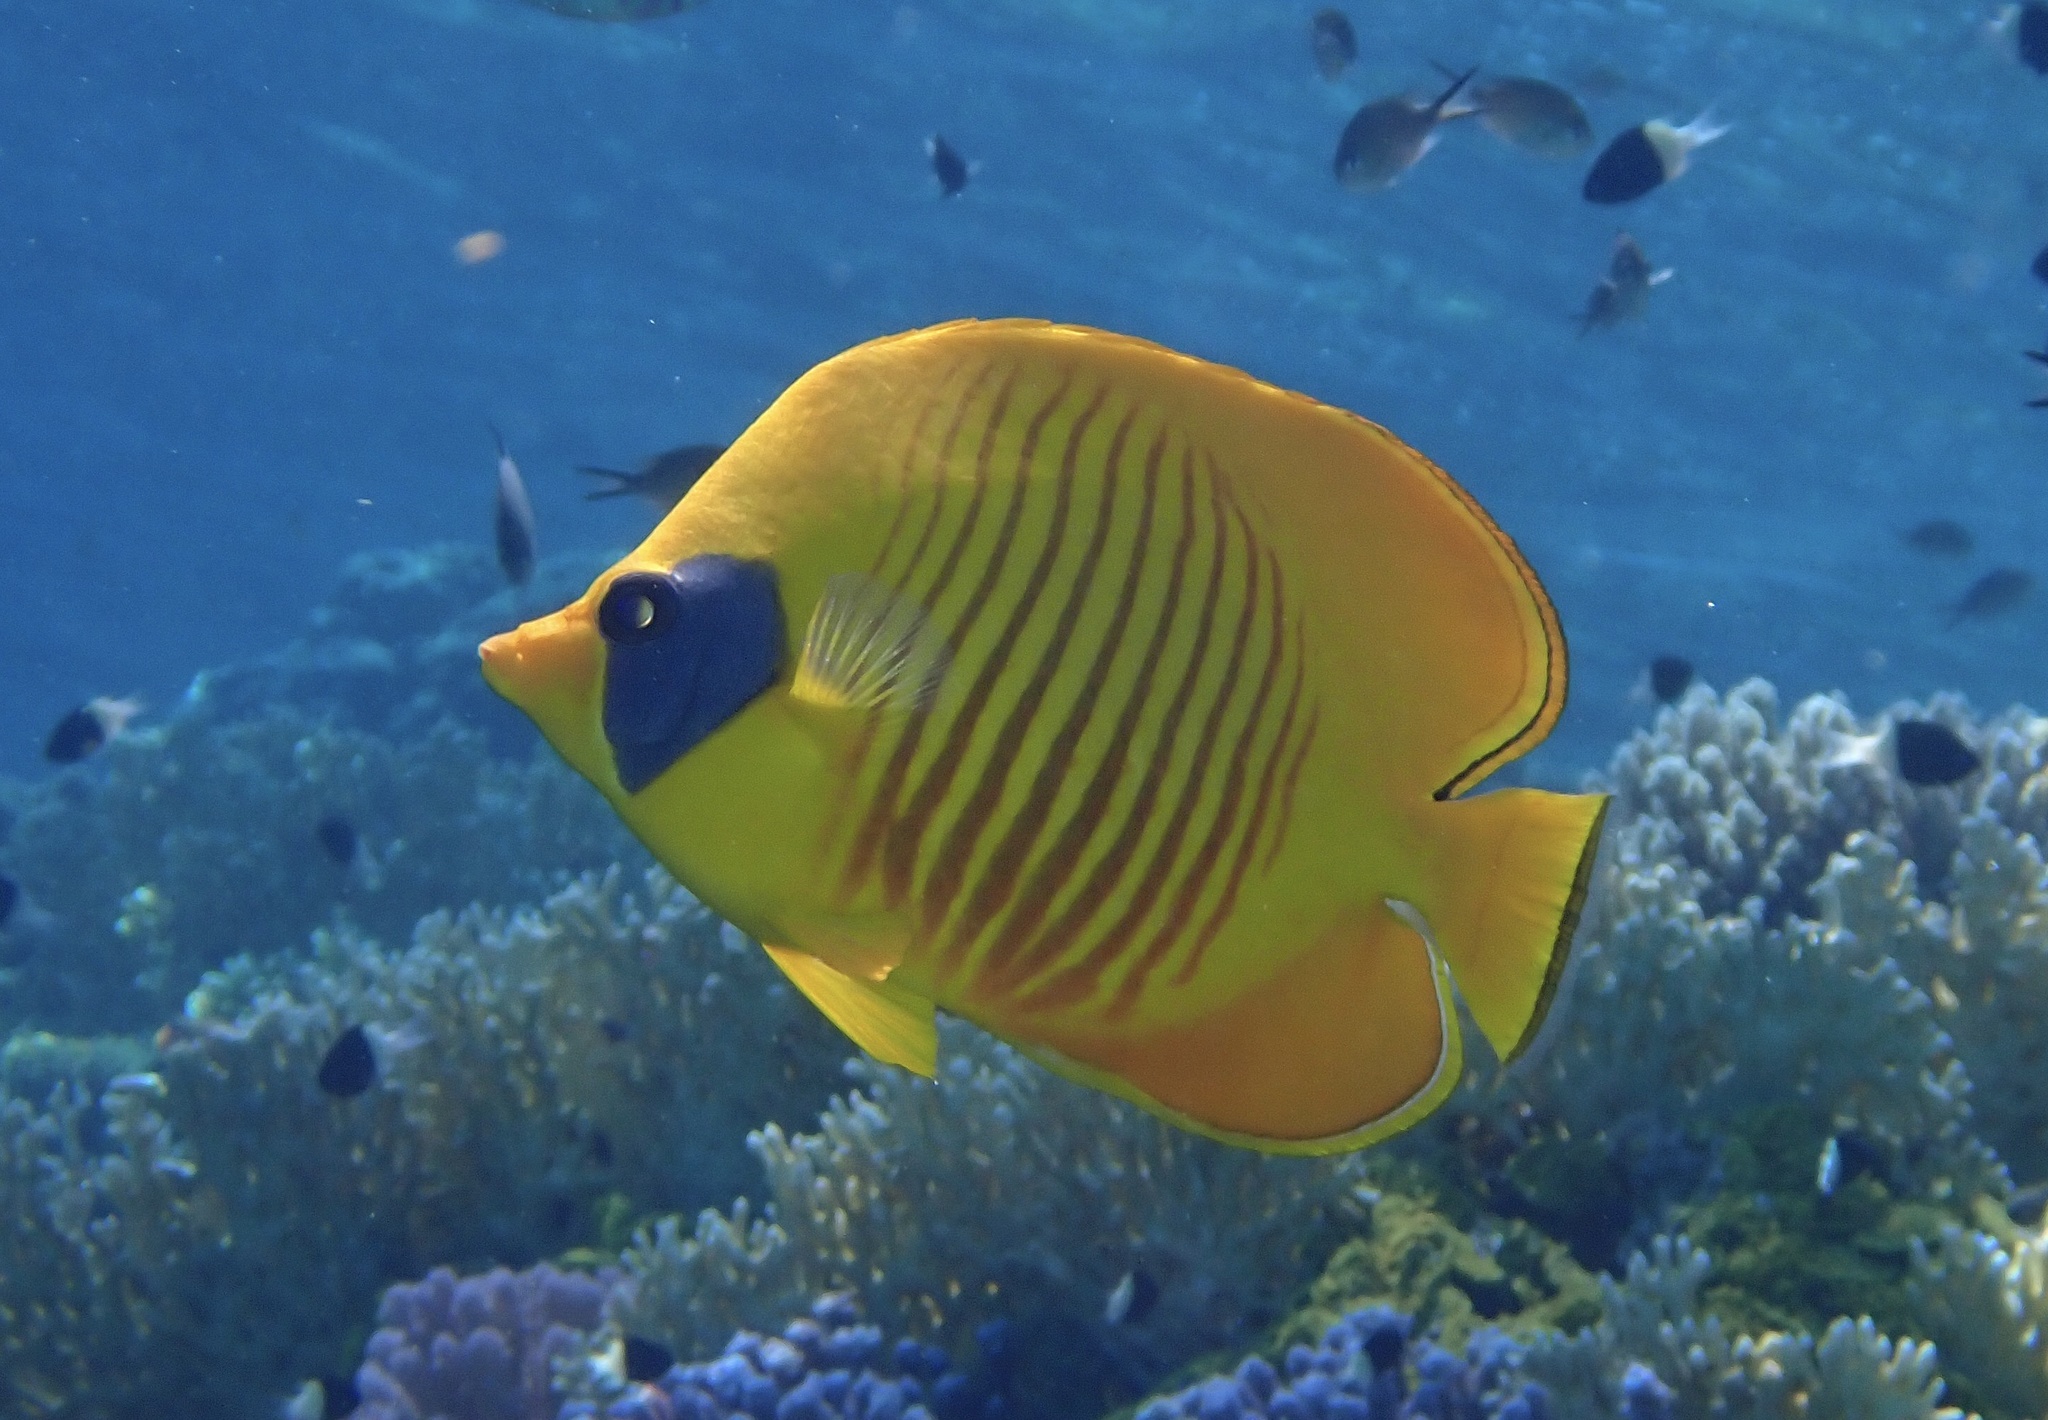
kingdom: Animalia
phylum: Chordata
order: Perciformes
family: Chaetodontidae
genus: Chaetodon
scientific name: Chaetodon semilarvatus
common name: Golden butterflyfish
